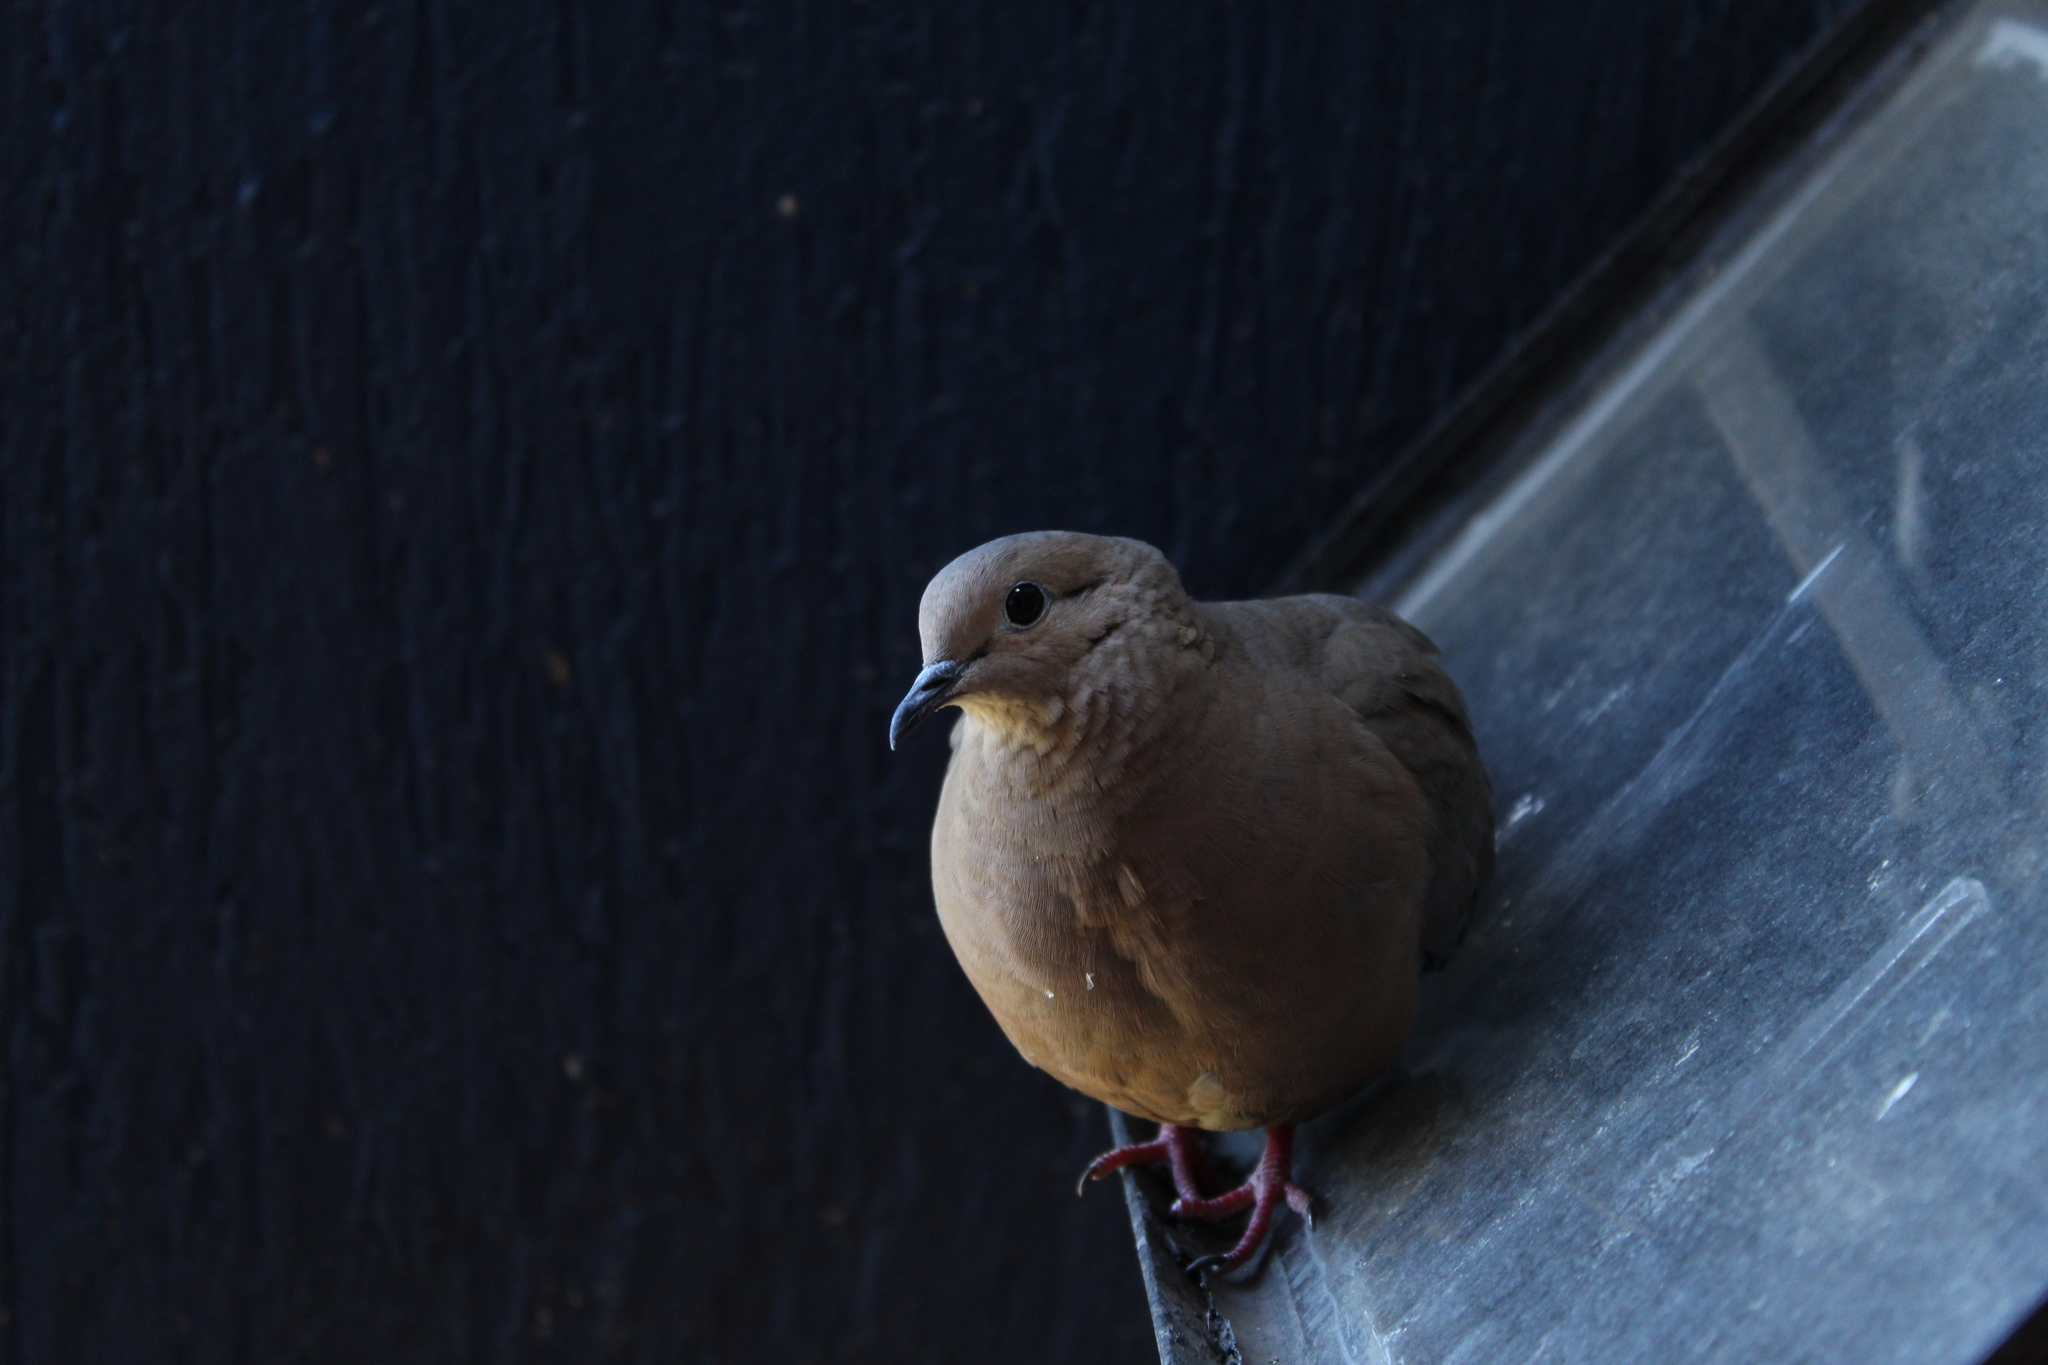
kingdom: Animalia
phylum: Chordata
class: Aves
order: Columbiformes
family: Columbidae
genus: Zenaida
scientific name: Zenaida auriculata
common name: Eared dove
